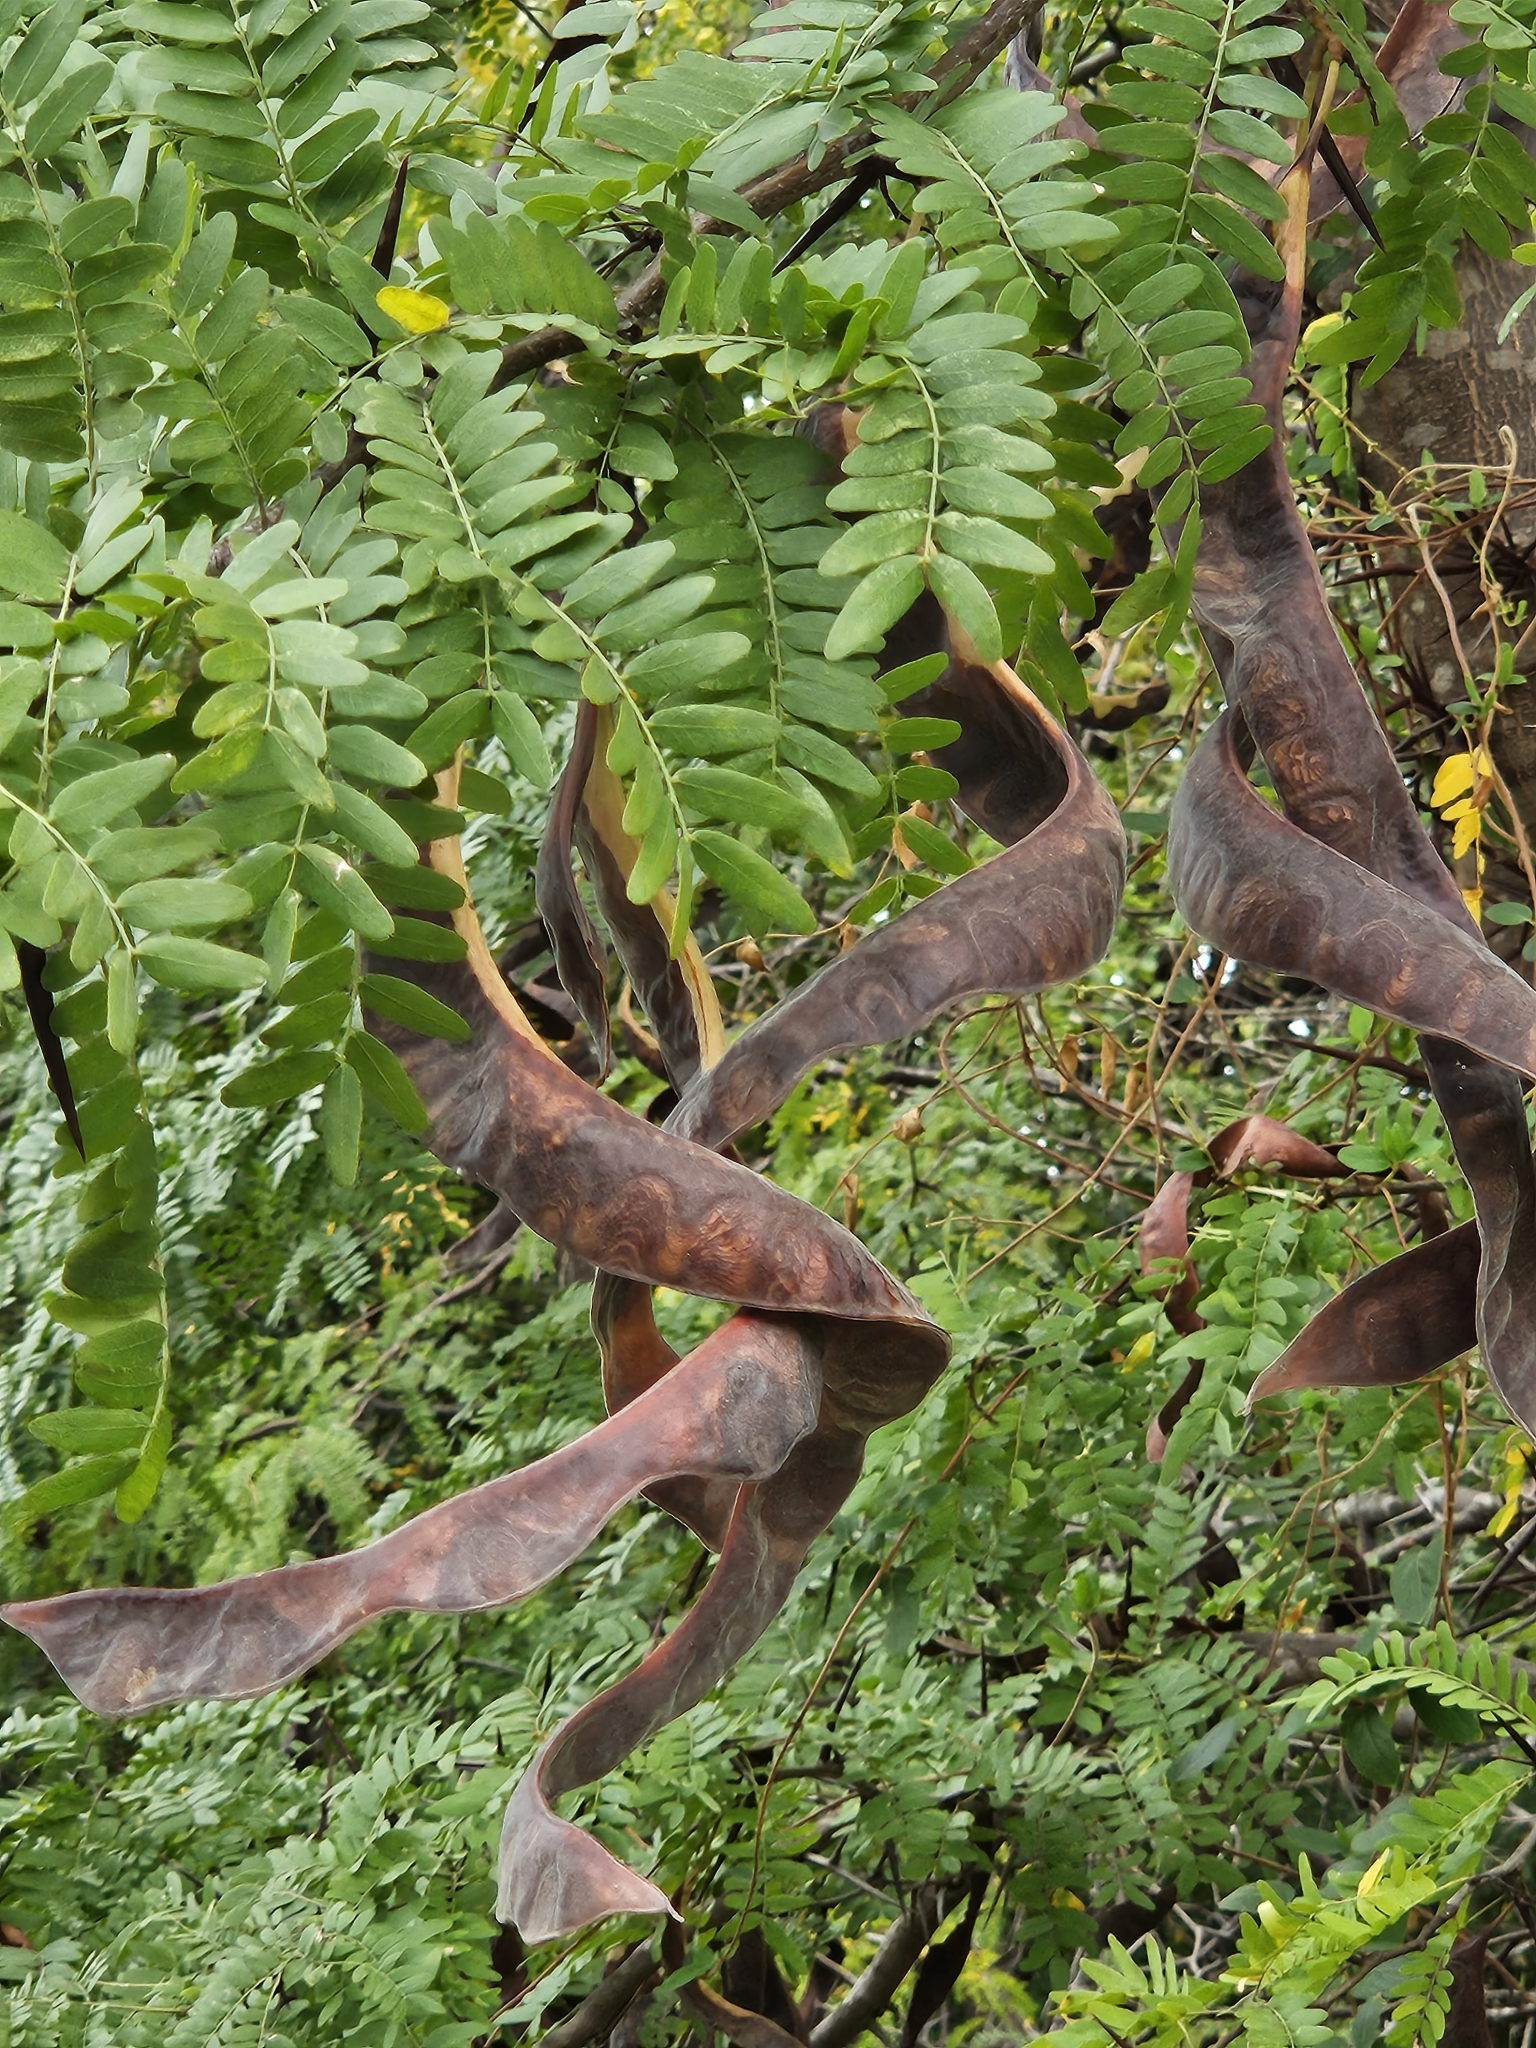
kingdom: Plantae
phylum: Tracheophyta
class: Magnoliopsida
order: Fabales
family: Fabaceae
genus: Gleditsia
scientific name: Gleditsia triacanthos
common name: Common honeylocust
